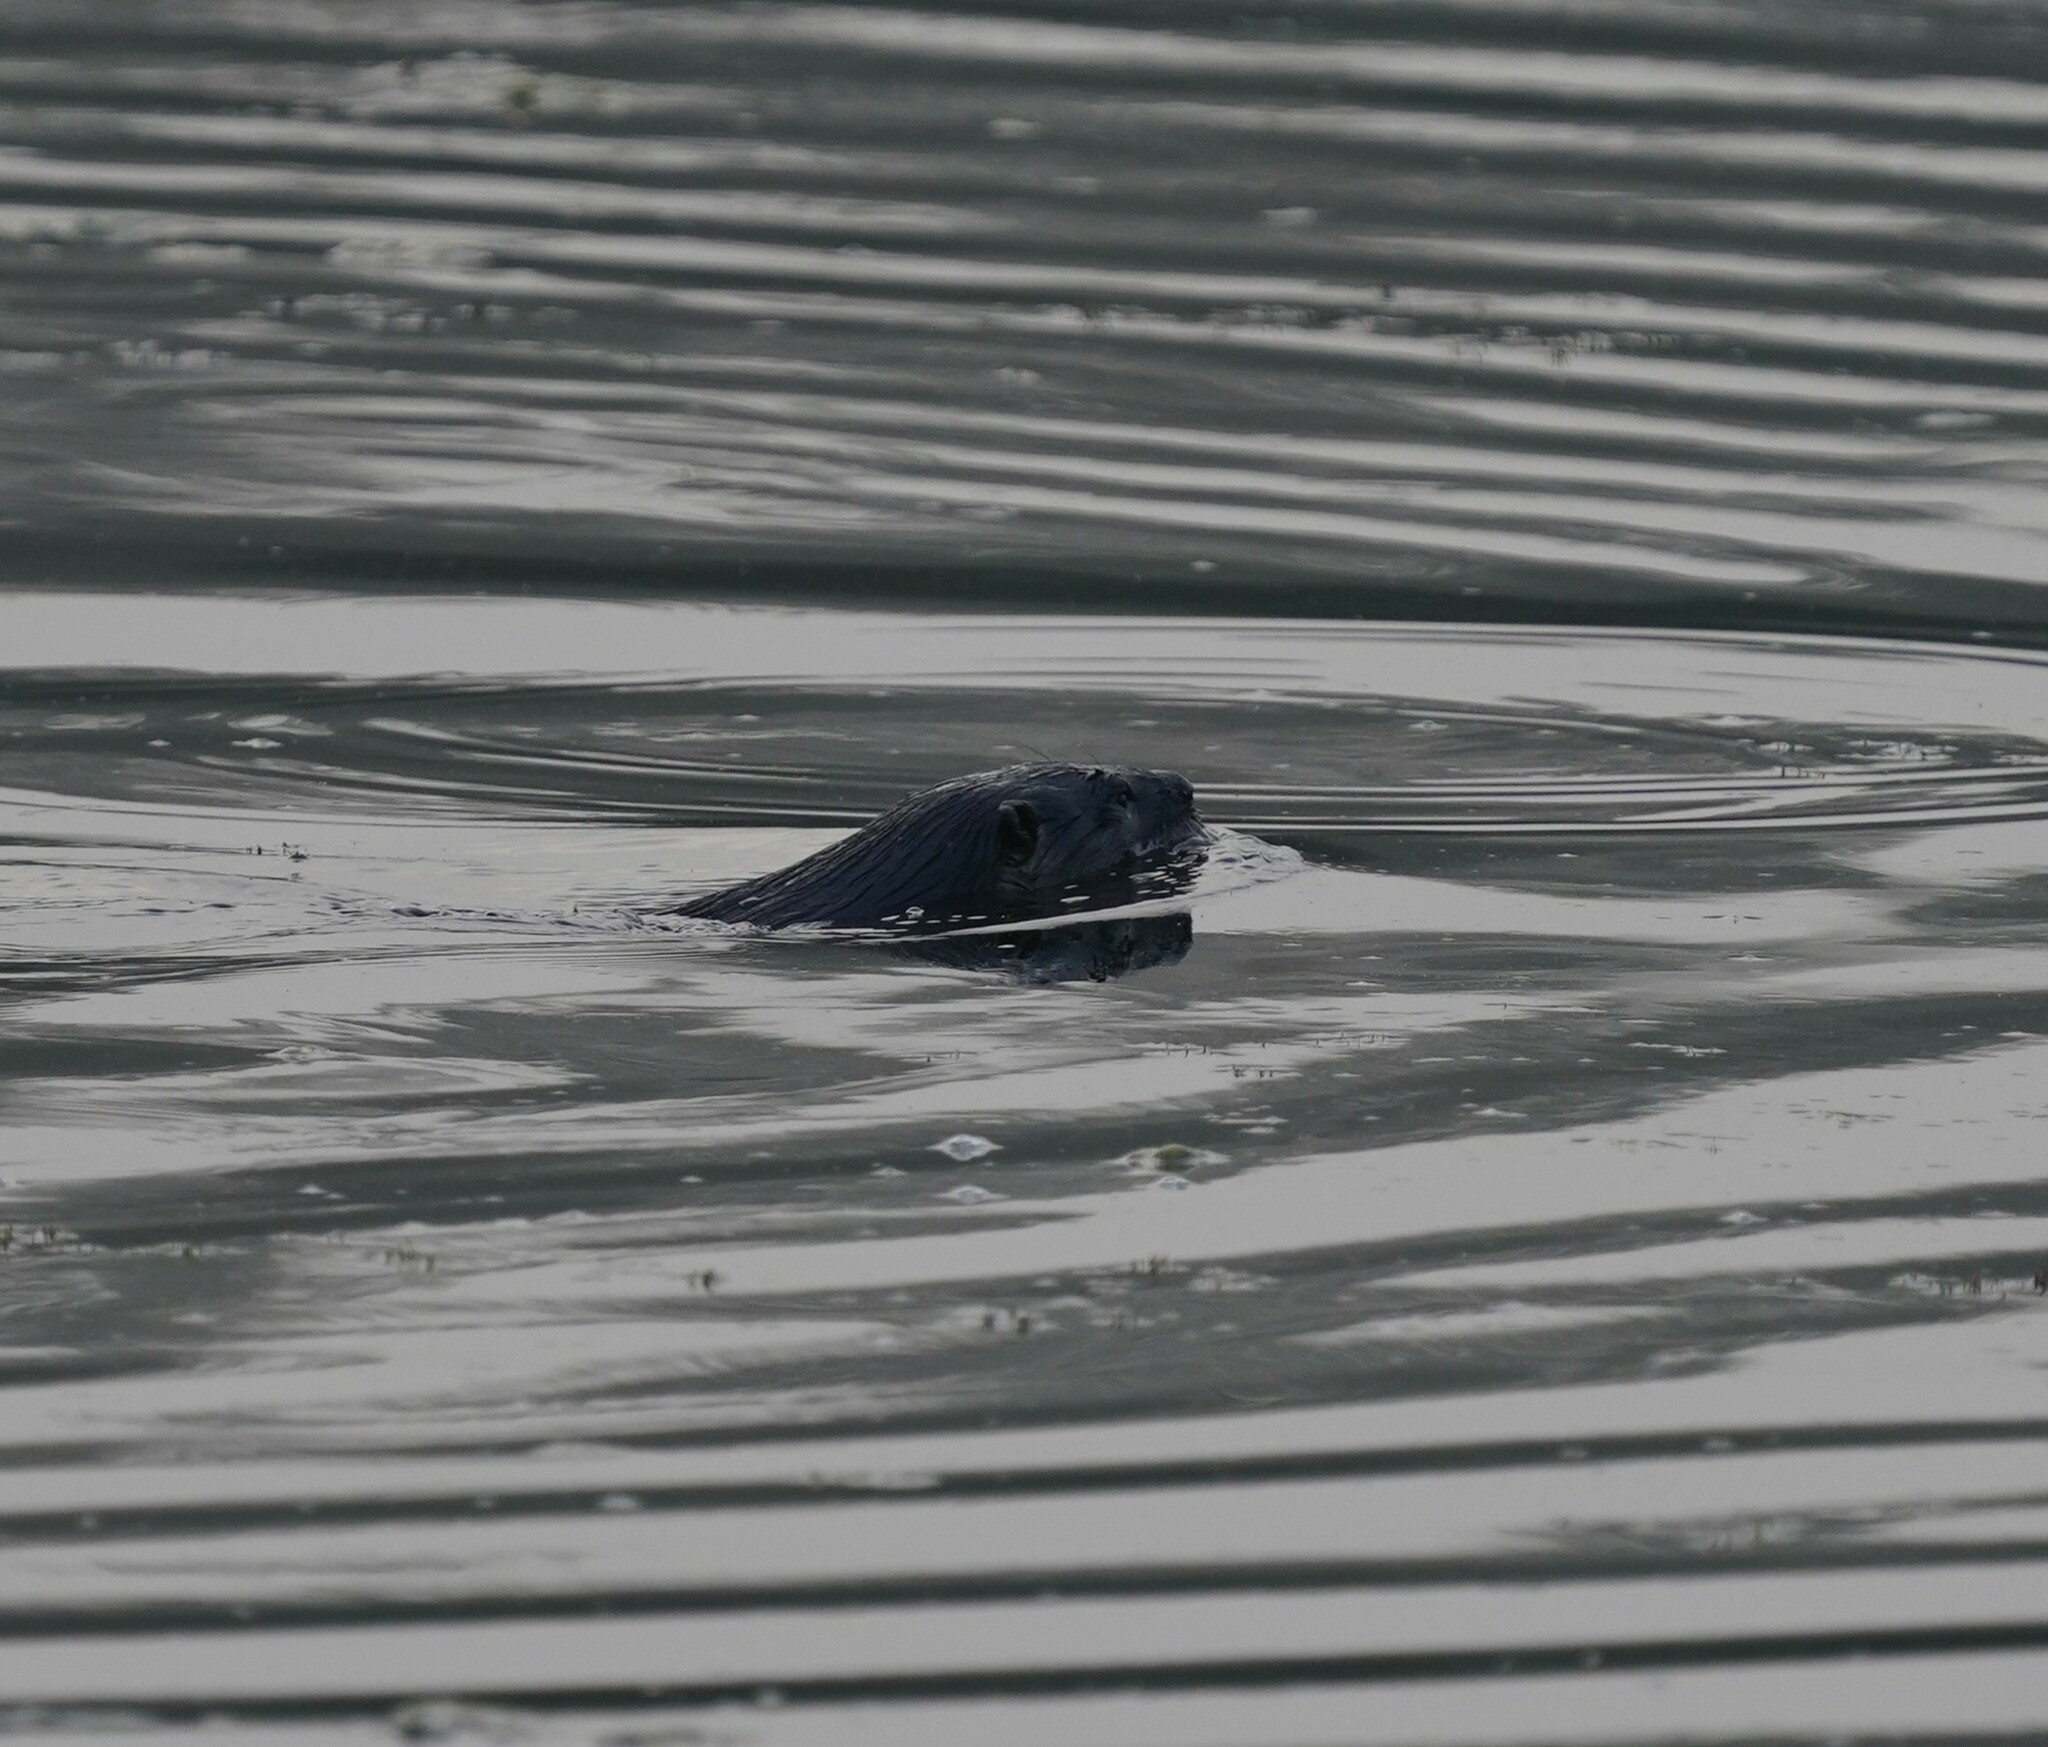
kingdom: Animalia
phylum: Chordata
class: Mammalia
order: Carnivora
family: Mustelidae
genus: Lontra
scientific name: Lontra canadensis
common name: North american river otter
